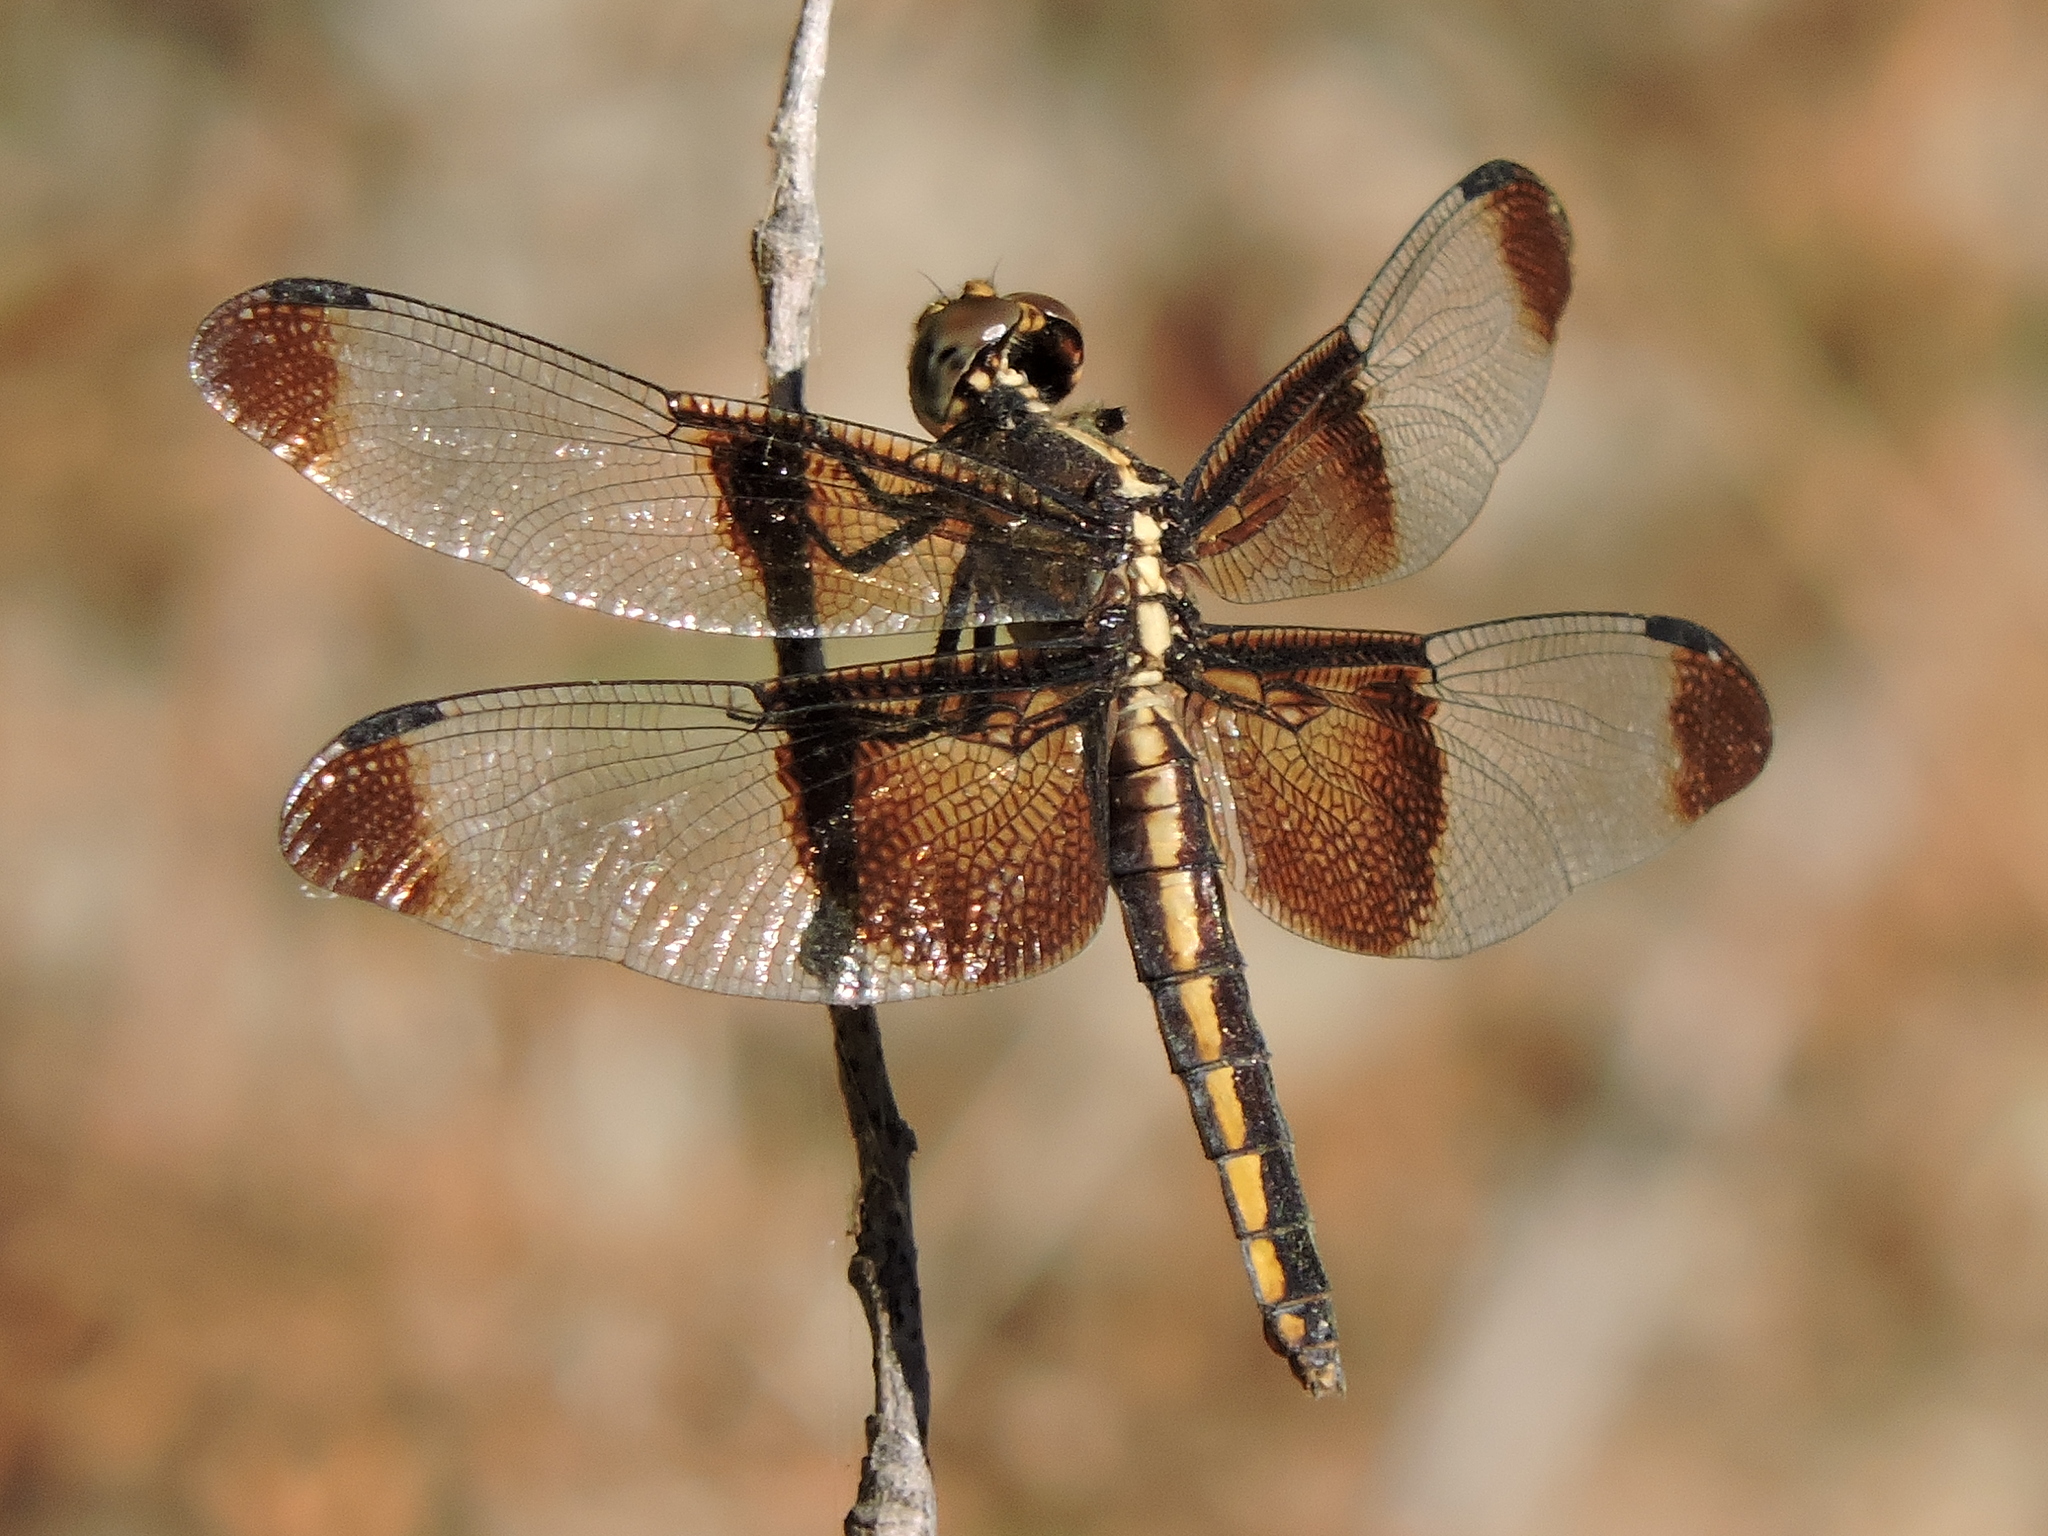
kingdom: Animalia
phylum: Arthropoda
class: Insecta
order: Odonata
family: Libellulidae
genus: Libellula
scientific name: Libellula luctuosa
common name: Widow skimmer
